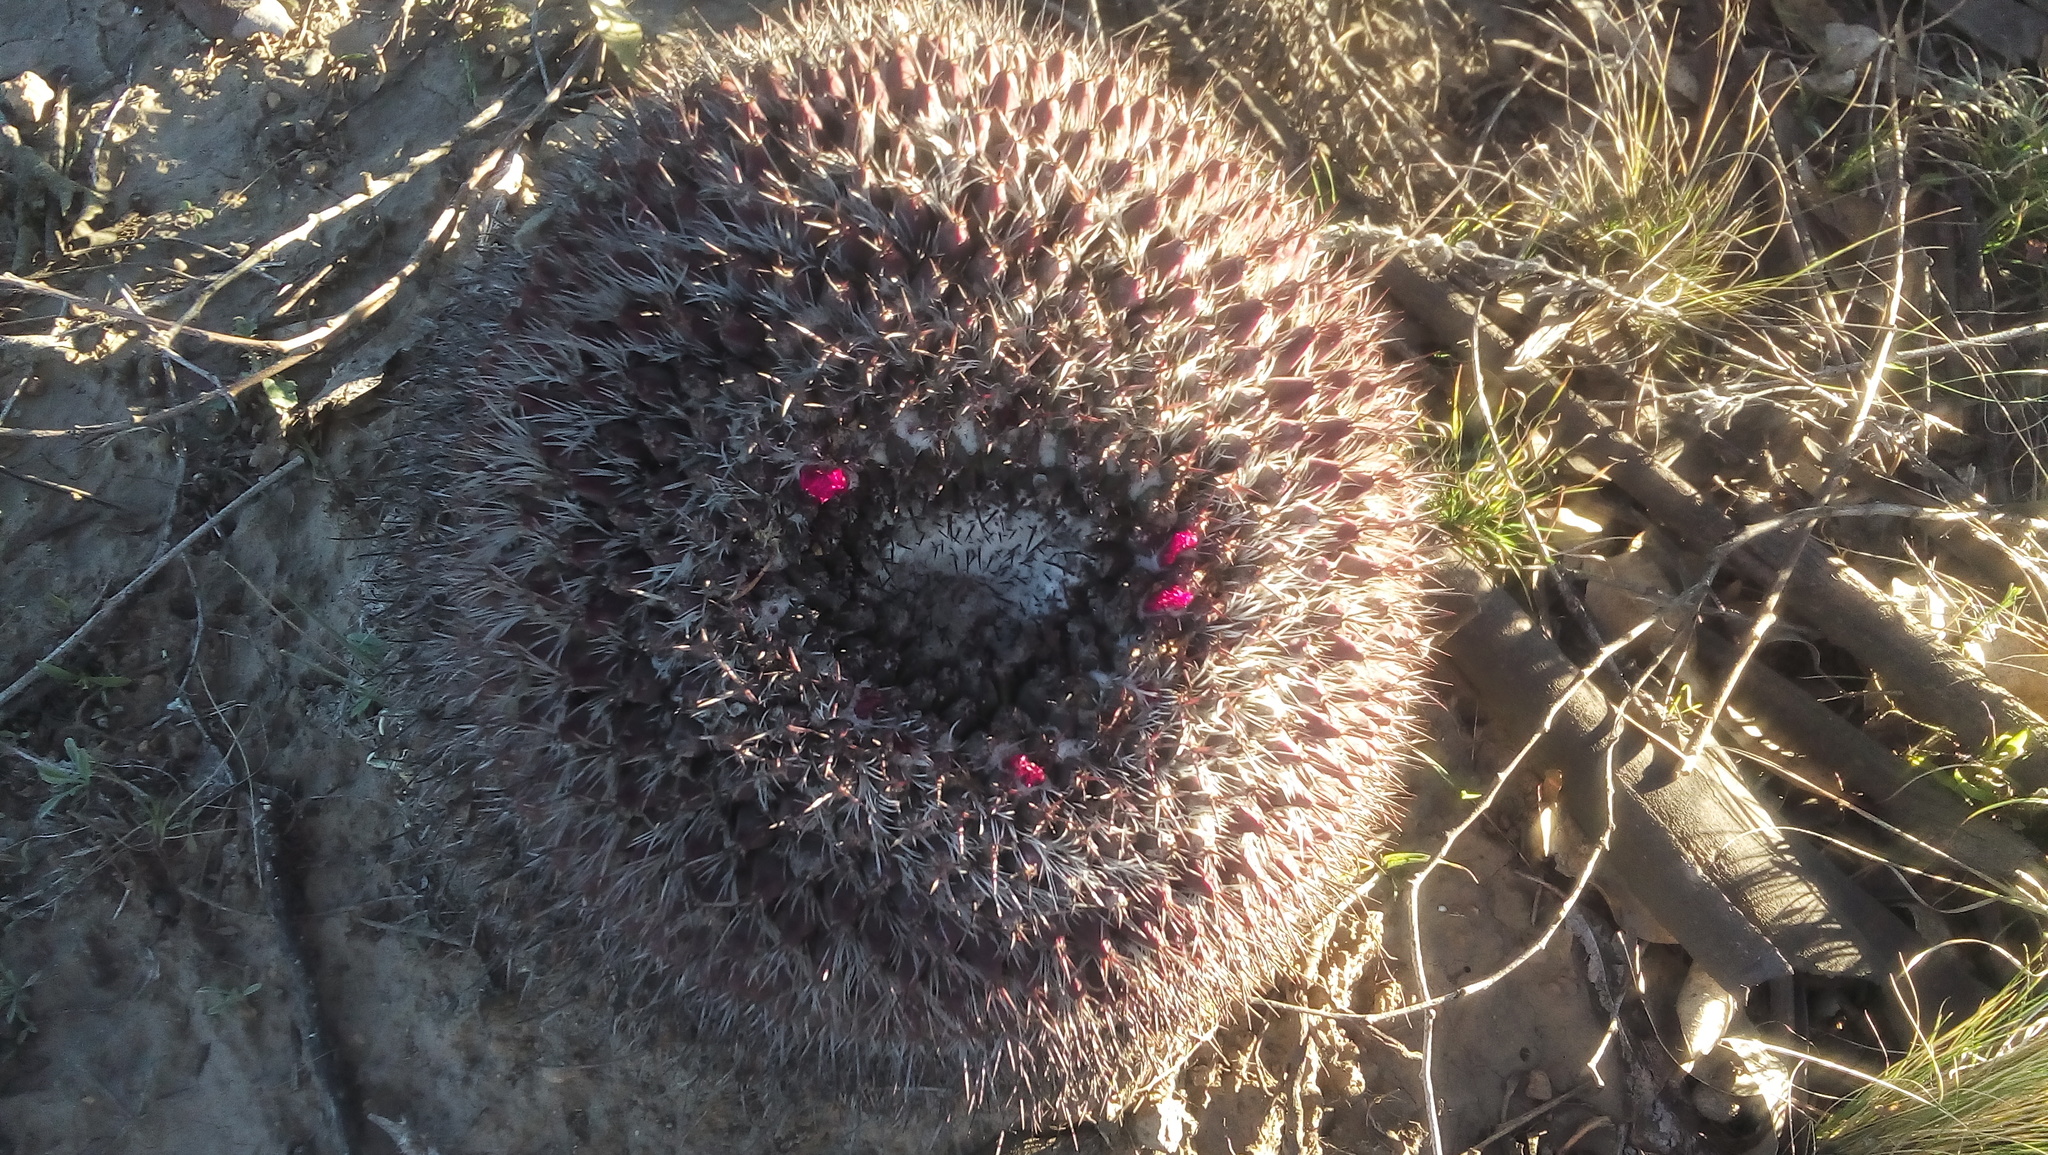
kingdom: Plantae
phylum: Tracheophyta
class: Magnoliopsida
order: Caryophyllales
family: Cactaceae
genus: Mammillaria
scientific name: Mammillaria mystax
